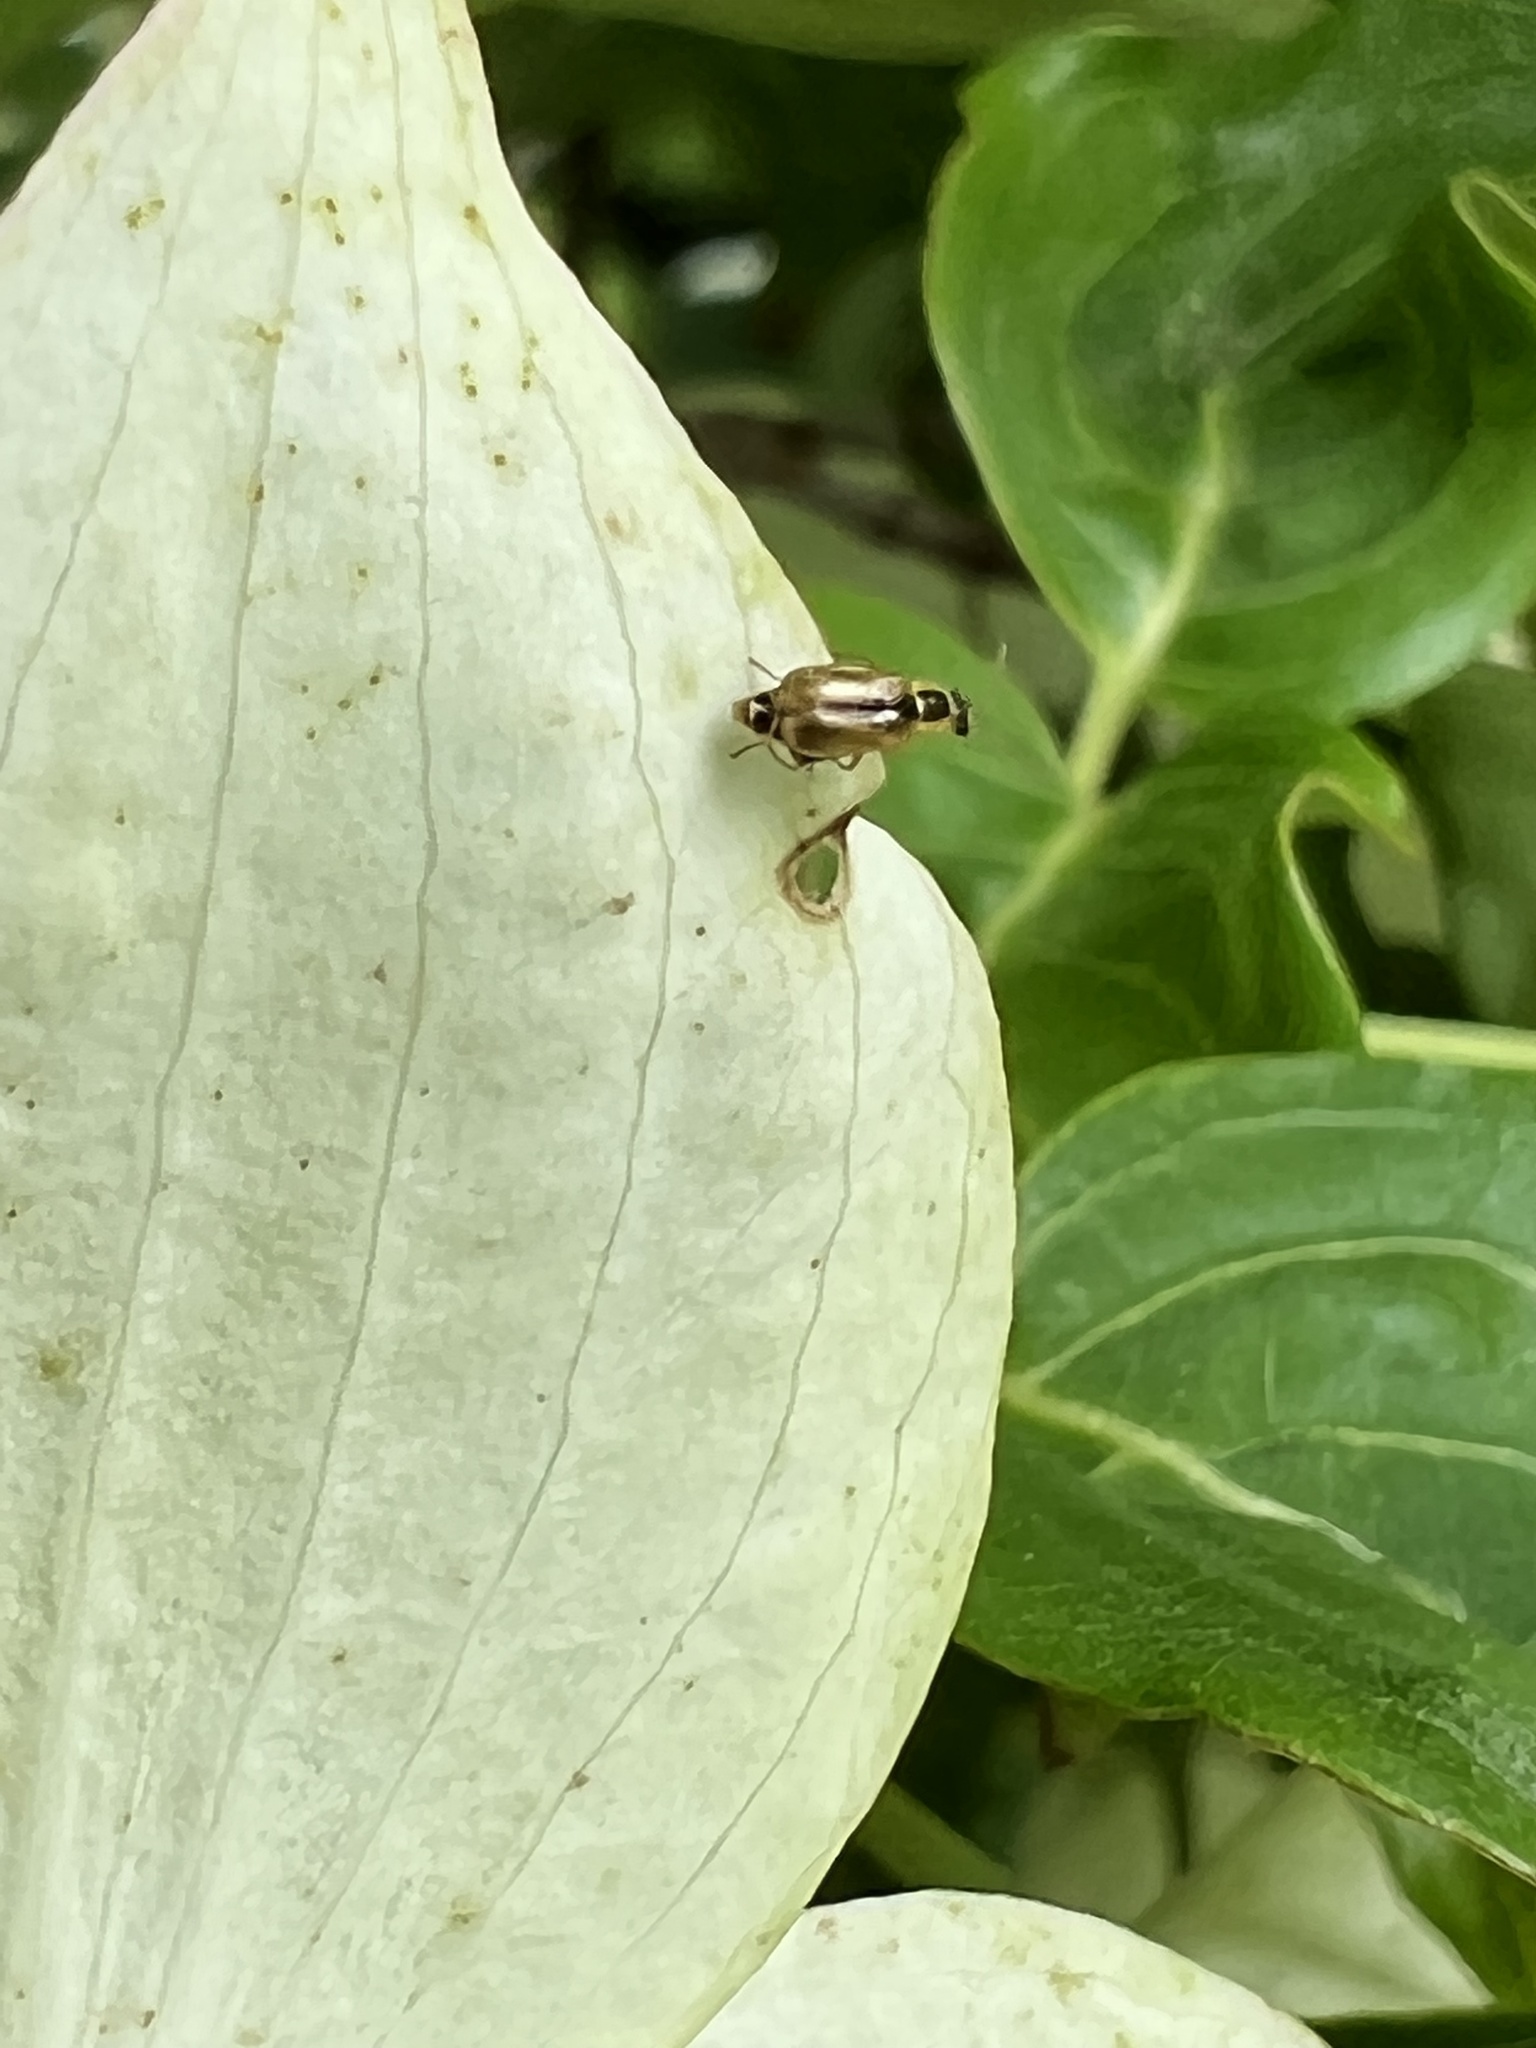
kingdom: Animalia
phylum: Arthropoda
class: Insecta
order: Coleoptera
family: Malachiidae
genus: Attalus
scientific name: Attalus
